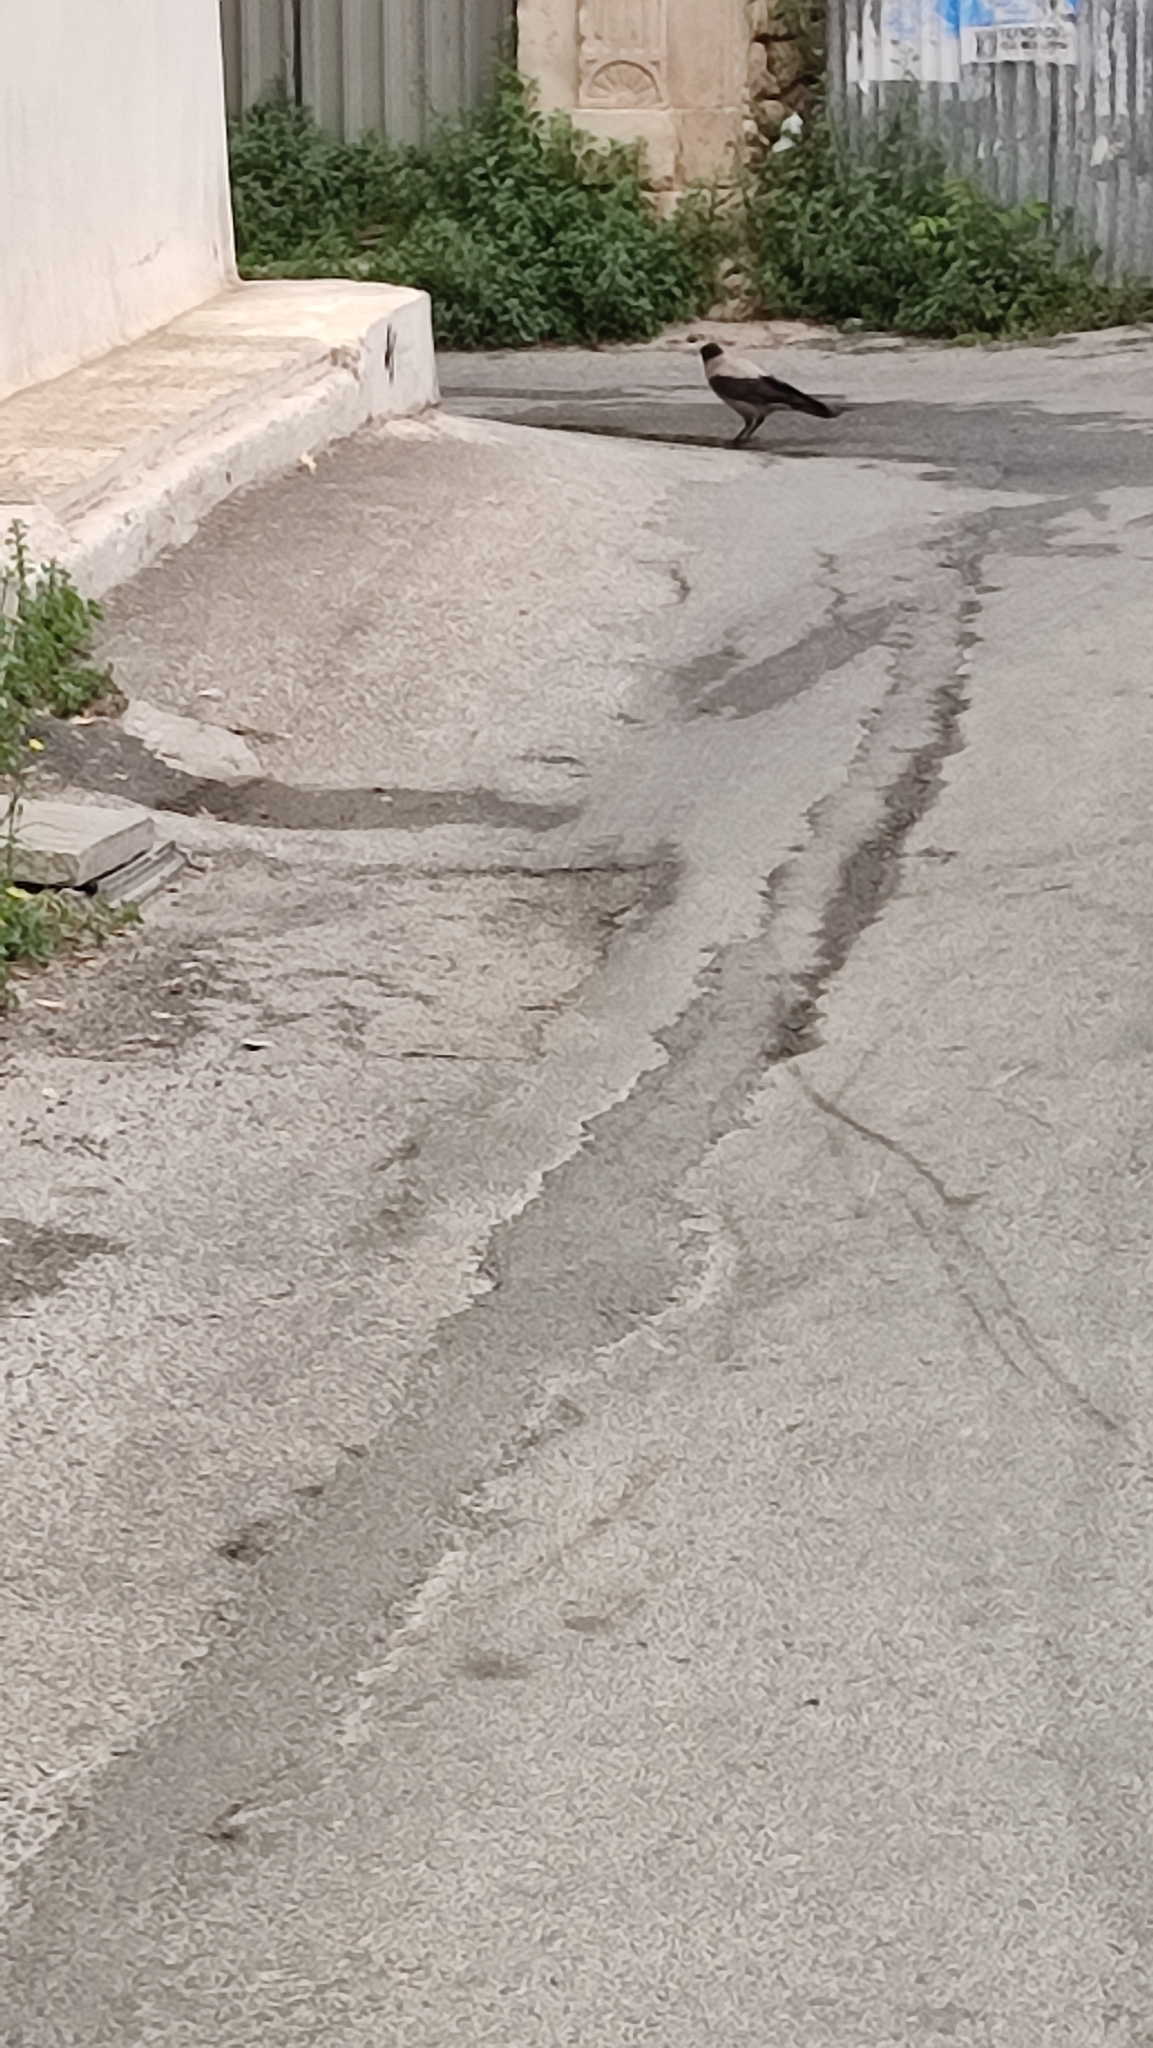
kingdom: Animalia
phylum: Chordata
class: Aves
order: Passeriformes
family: Corvidae
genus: Corvus
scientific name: Corvus cornix
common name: Hooded crow
